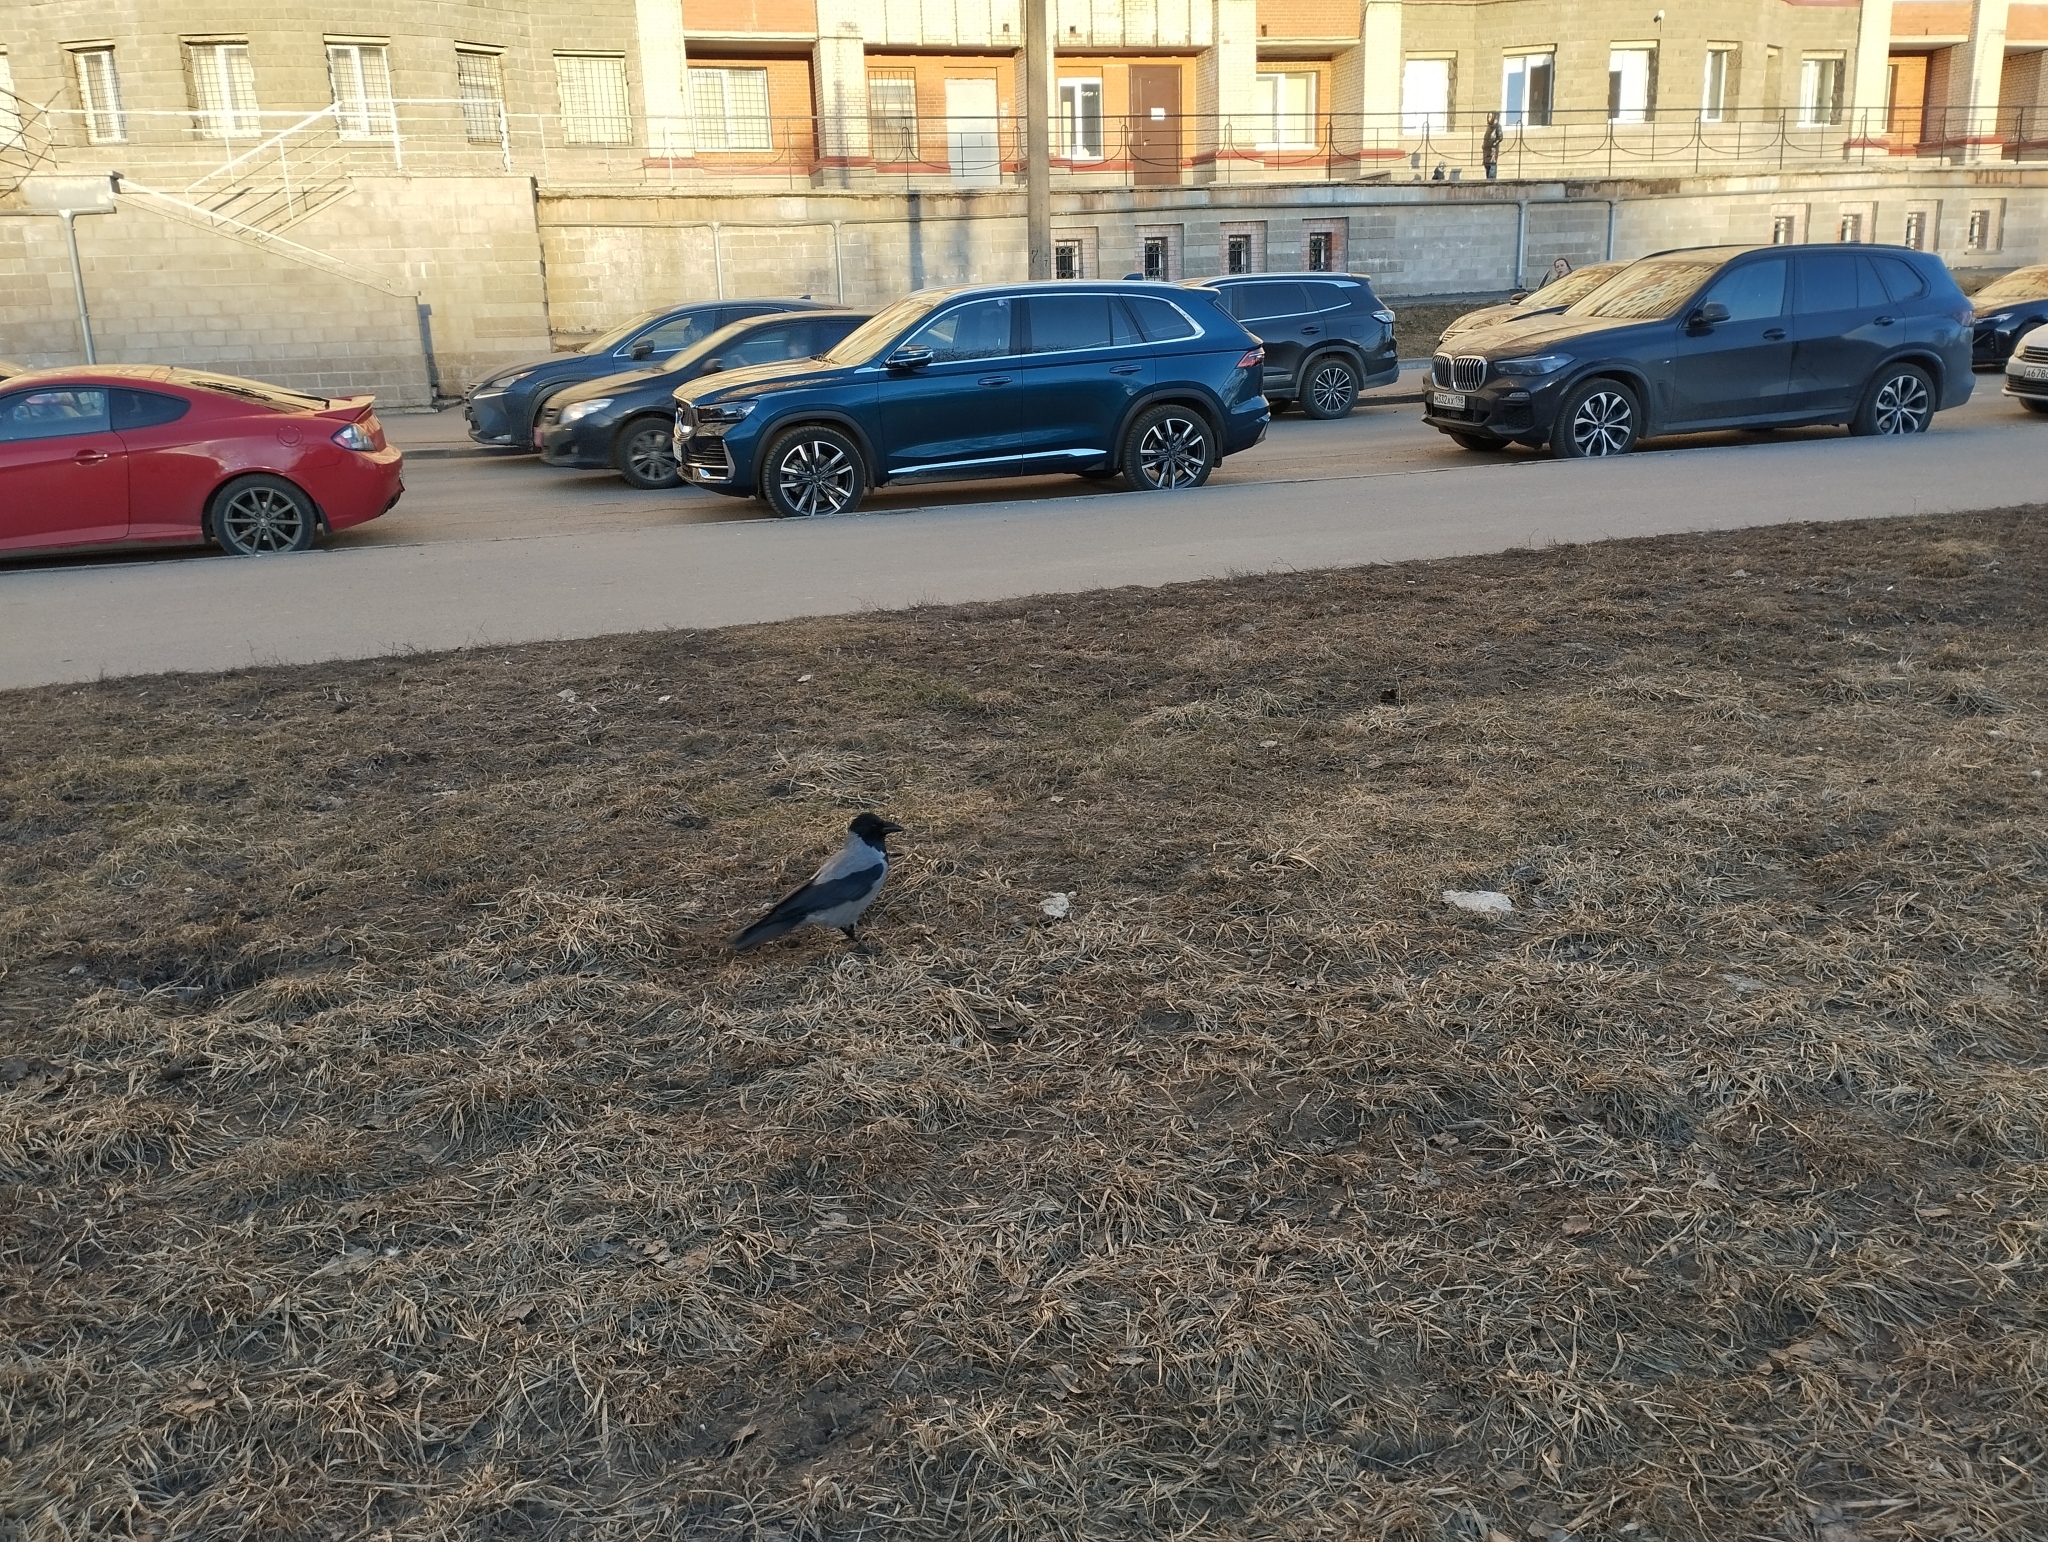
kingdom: Animalia
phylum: Chordata
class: Aves
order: Passeriformes
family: Corvidae
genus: Corvus
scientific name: Corvus cornix
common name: Hooded crow
